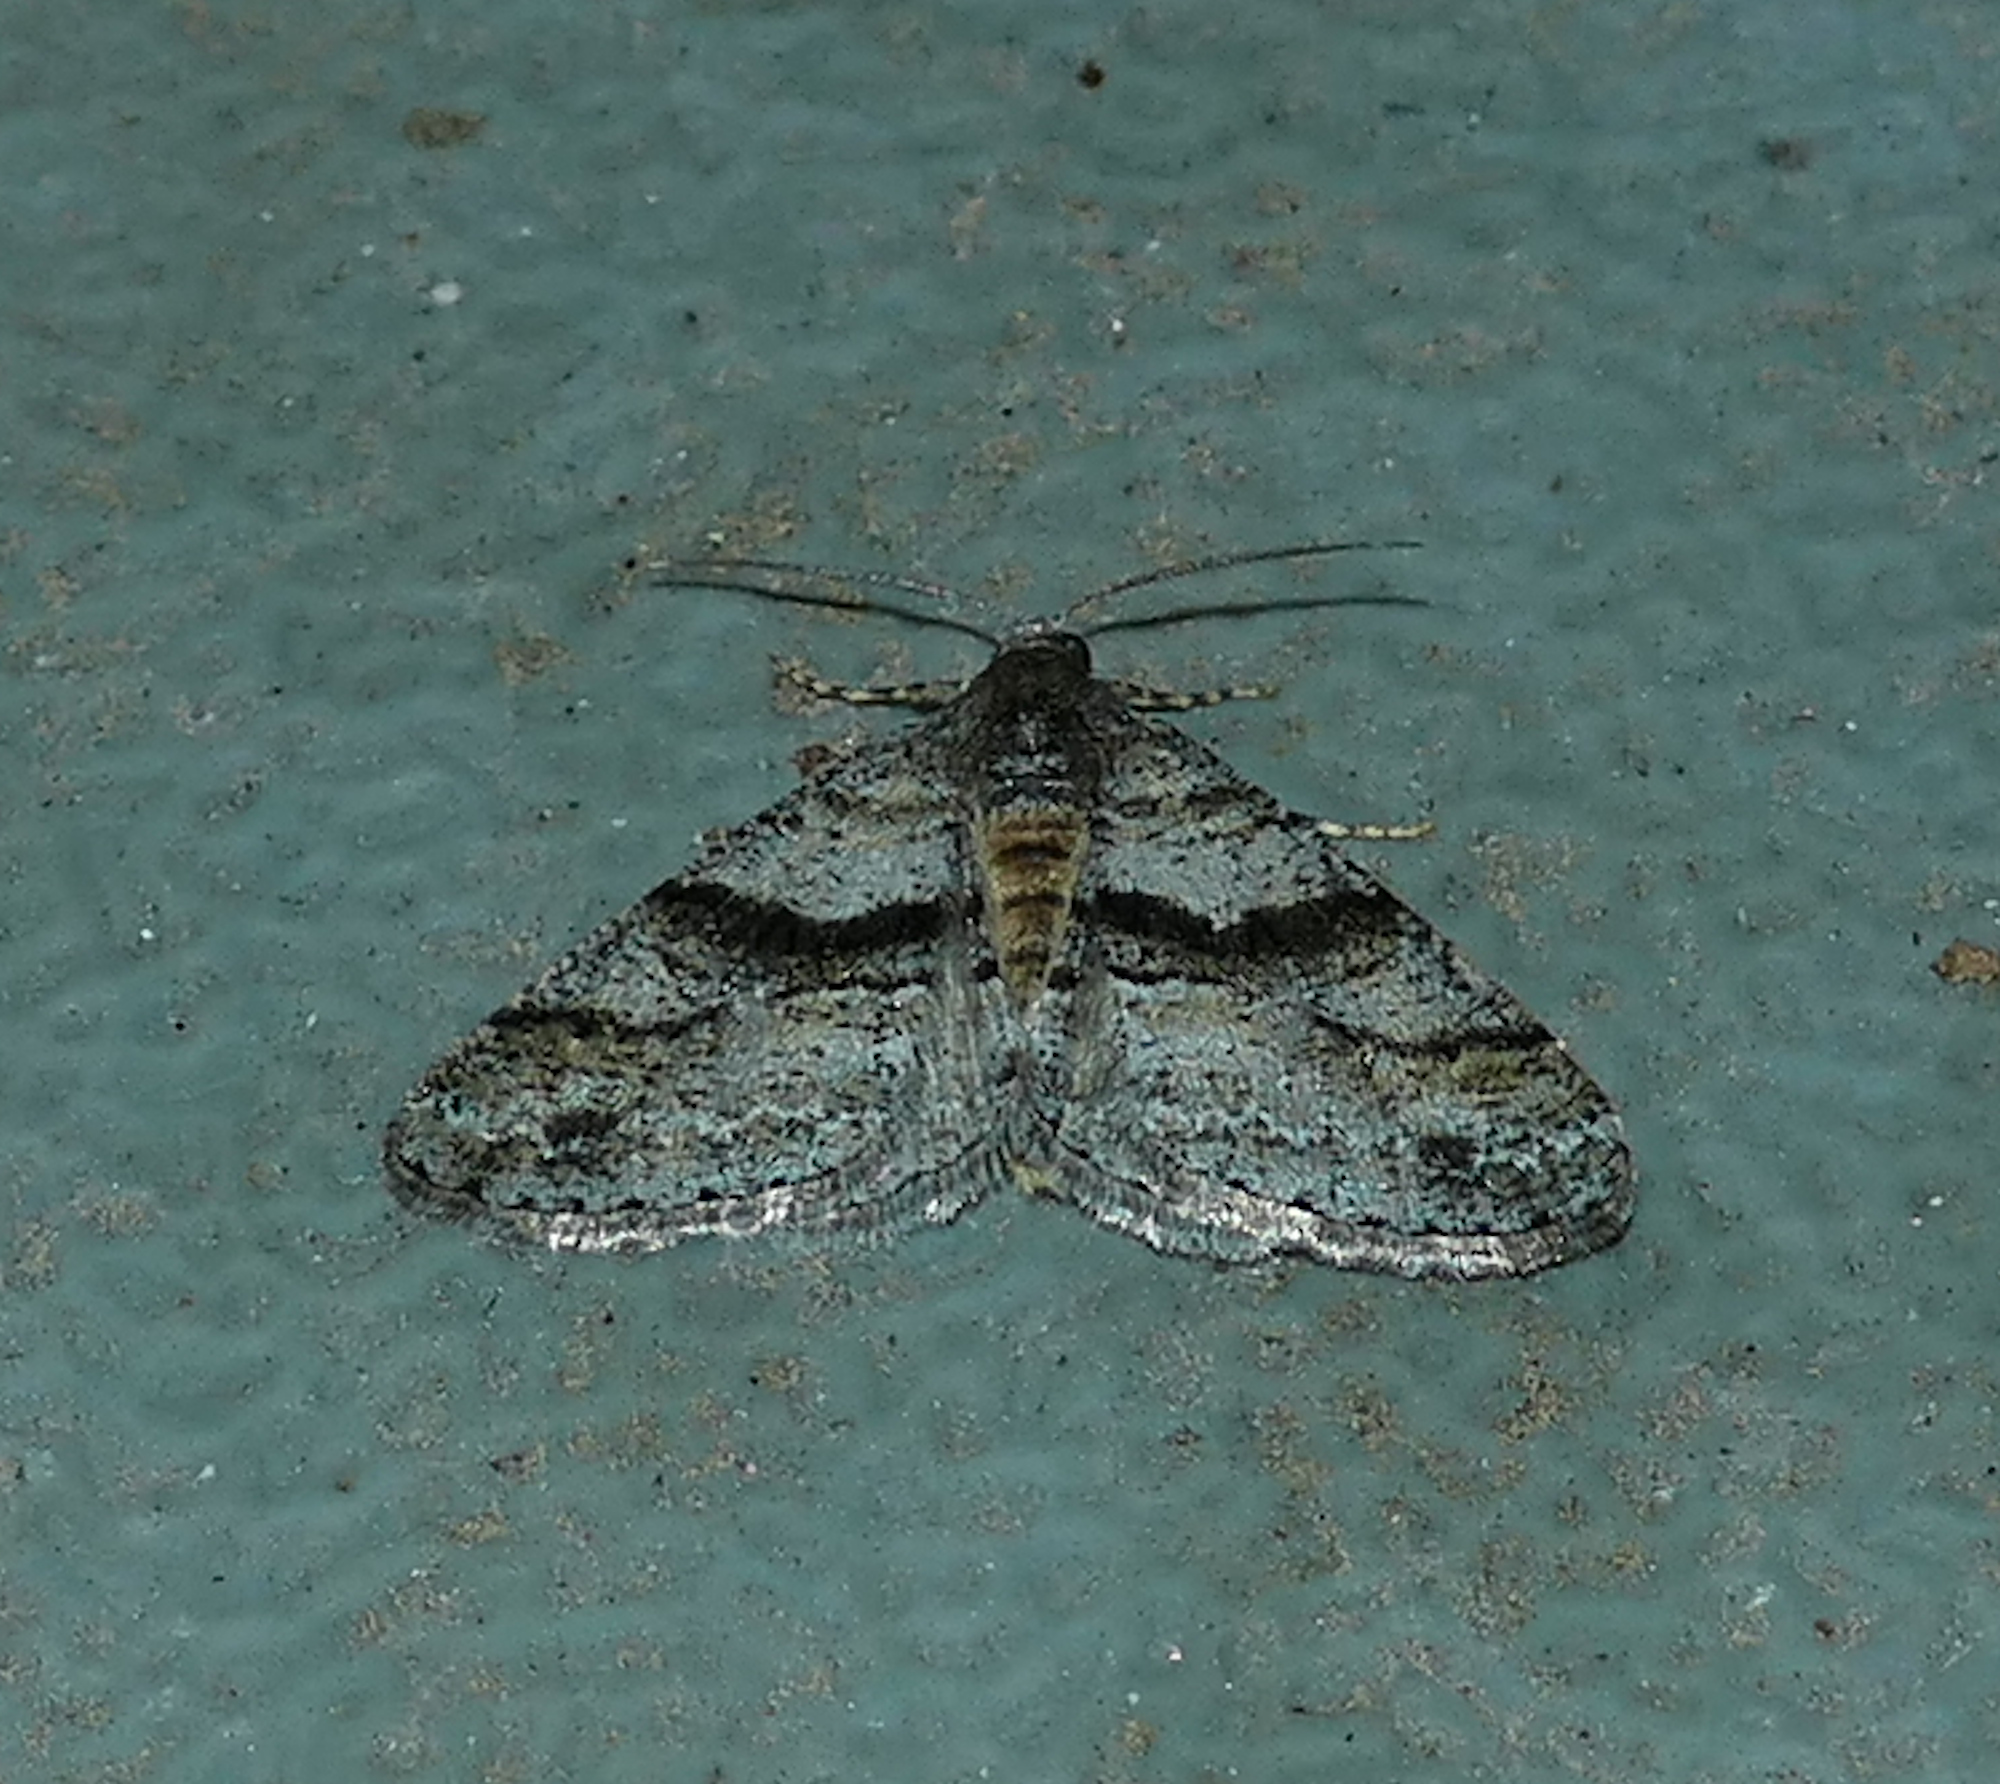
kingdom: Animalia
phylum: Arthropoda
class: Insecta
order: Lepidoptera
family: Geometridae
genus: Prionomelia
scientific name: Prionomelia spododea
